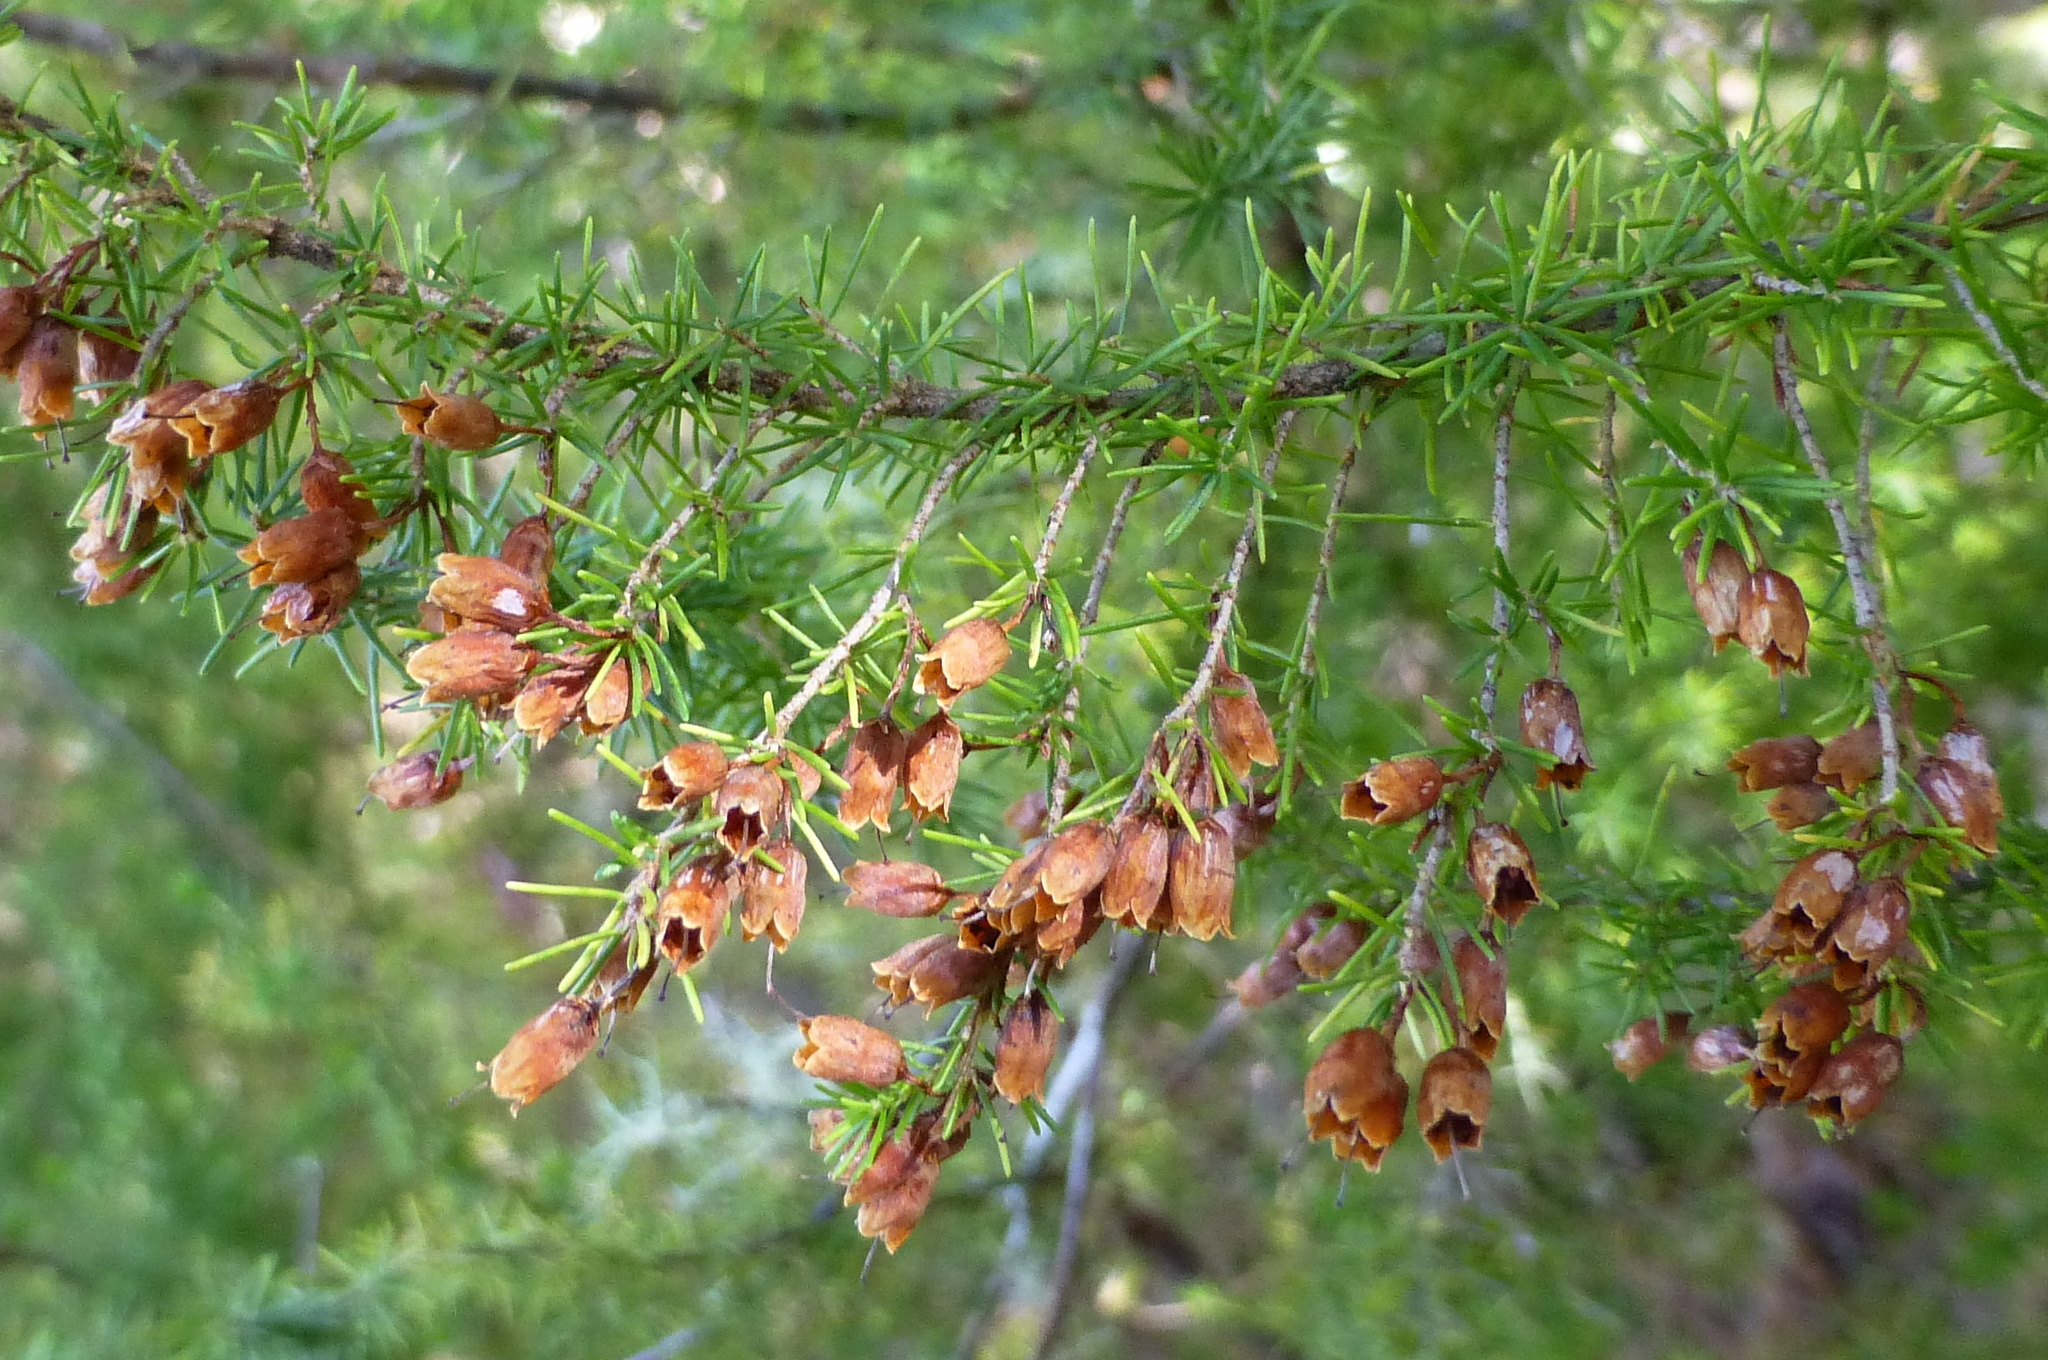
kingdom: Plantae
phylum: Tracheophyta
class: Magnoliopsida
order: Ericales
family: Ericaceae
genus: Erica
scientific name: Erica lusitanica
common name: Spanish heath
